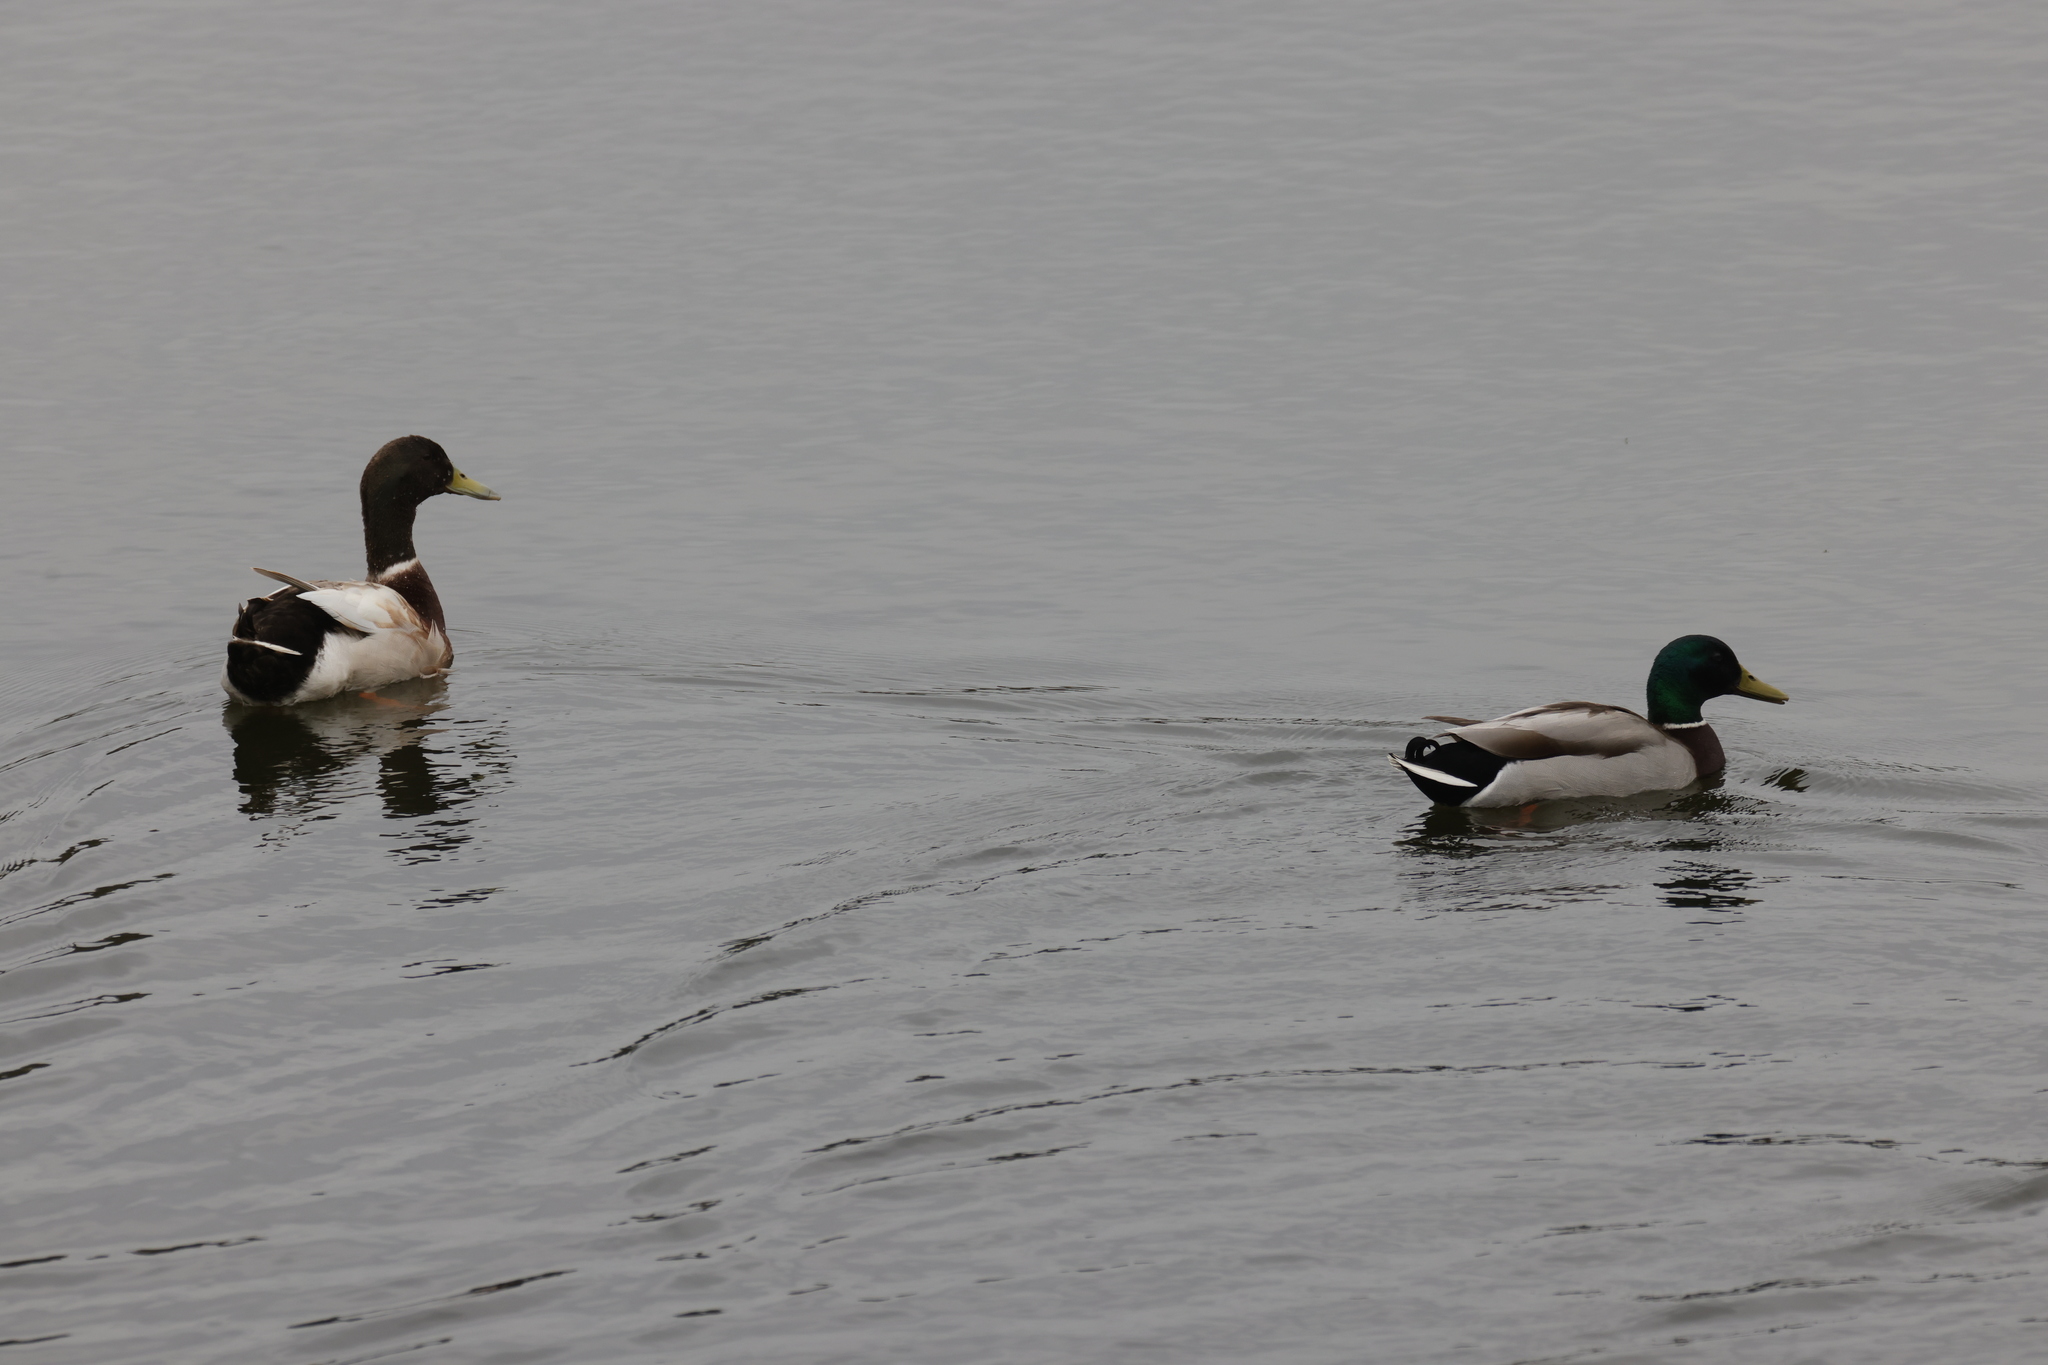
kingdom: Animalia
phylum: Chordata
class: Aves
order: Anseriformes
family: Anatidae
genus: Anas
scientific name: Anas platyrhynchos
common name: Mallard
